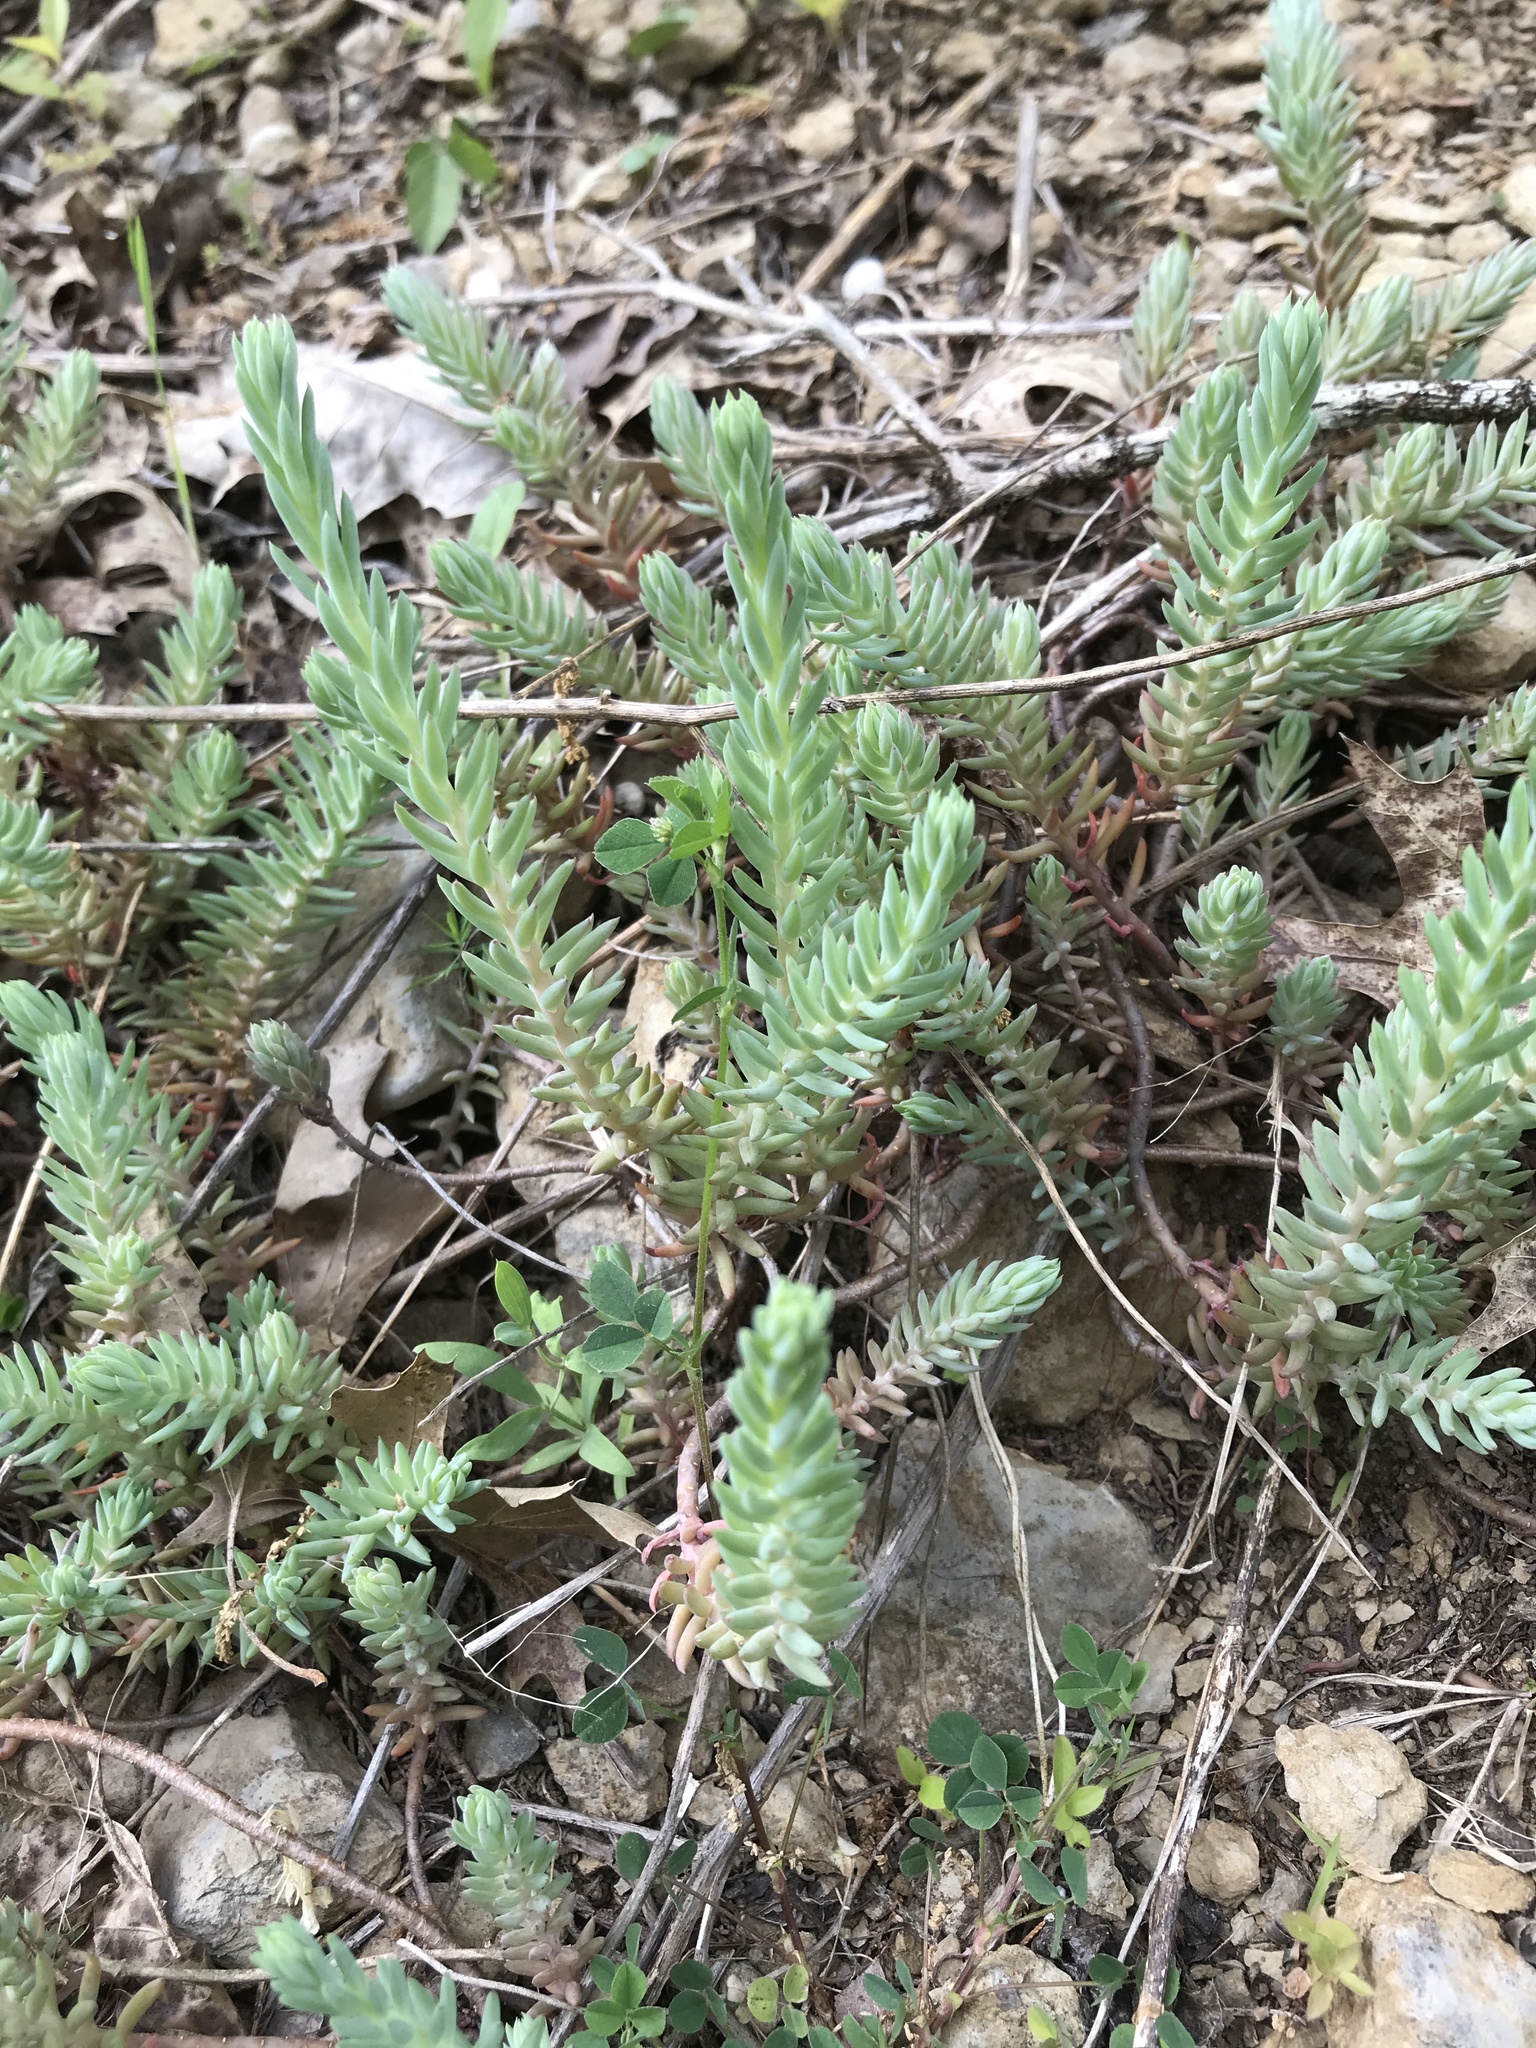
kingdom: Plantae
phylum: Tracheophyta
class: Magnoliopsida
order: Saxifragales
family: Crassulaceae
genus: Petrosedum
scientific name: Petrosedum
